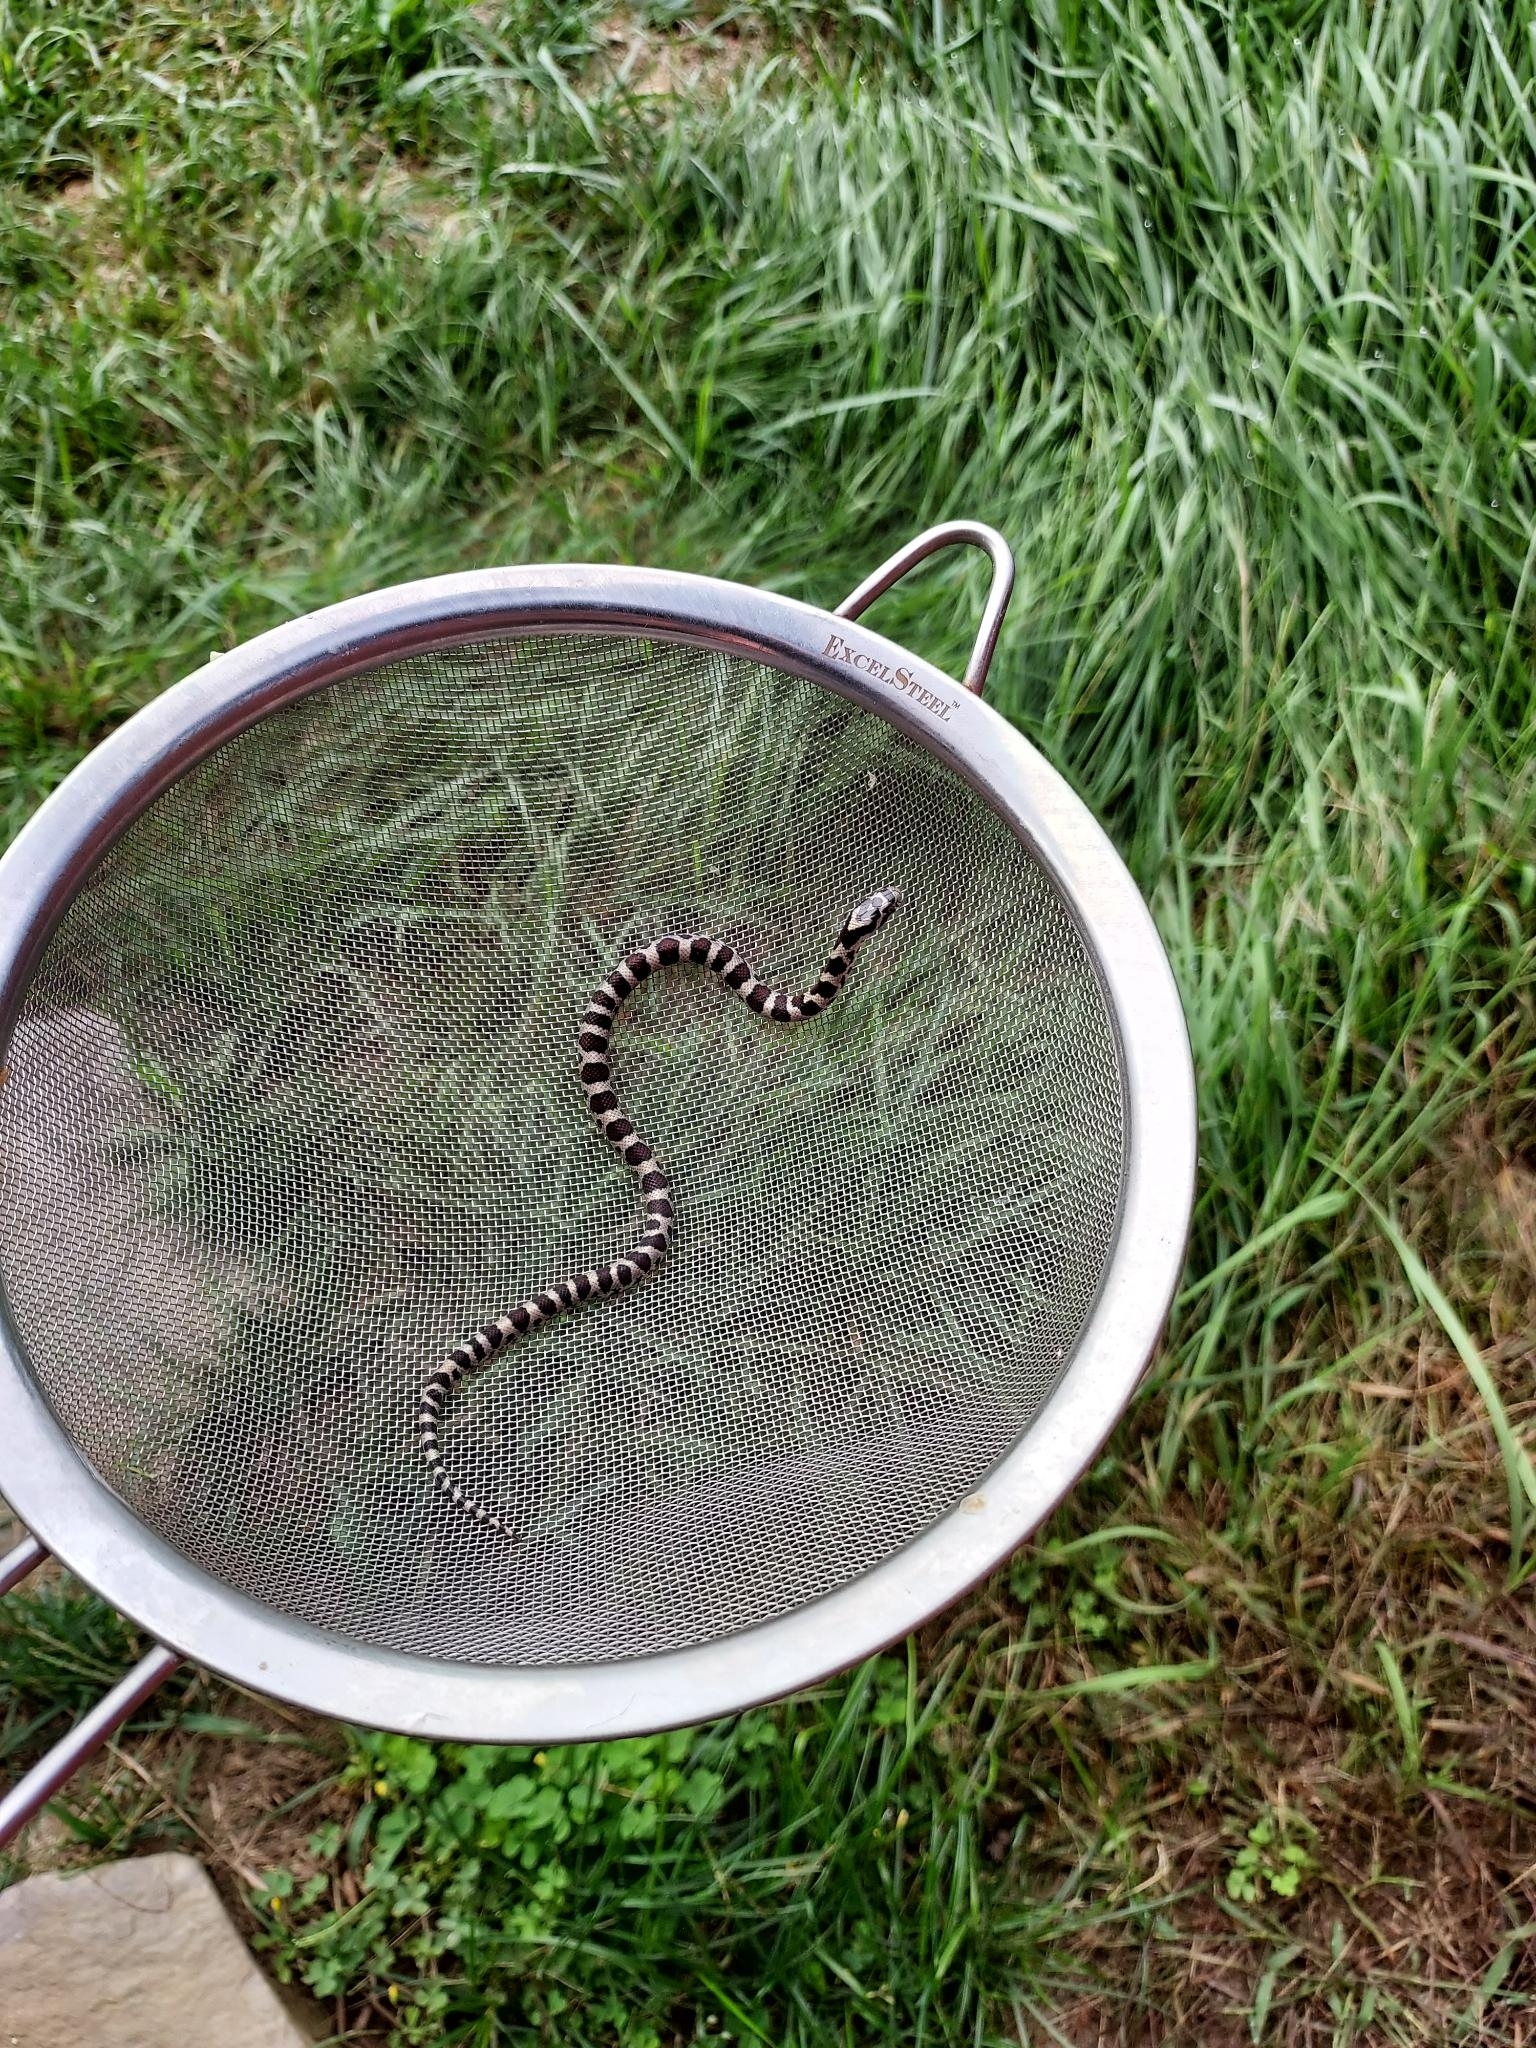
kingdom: Animalia
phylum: Chordata
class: Squamata
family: Colubridae
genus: Lampropeltis
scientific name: Lampropeltis triangulum
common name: Eastern milksnake
